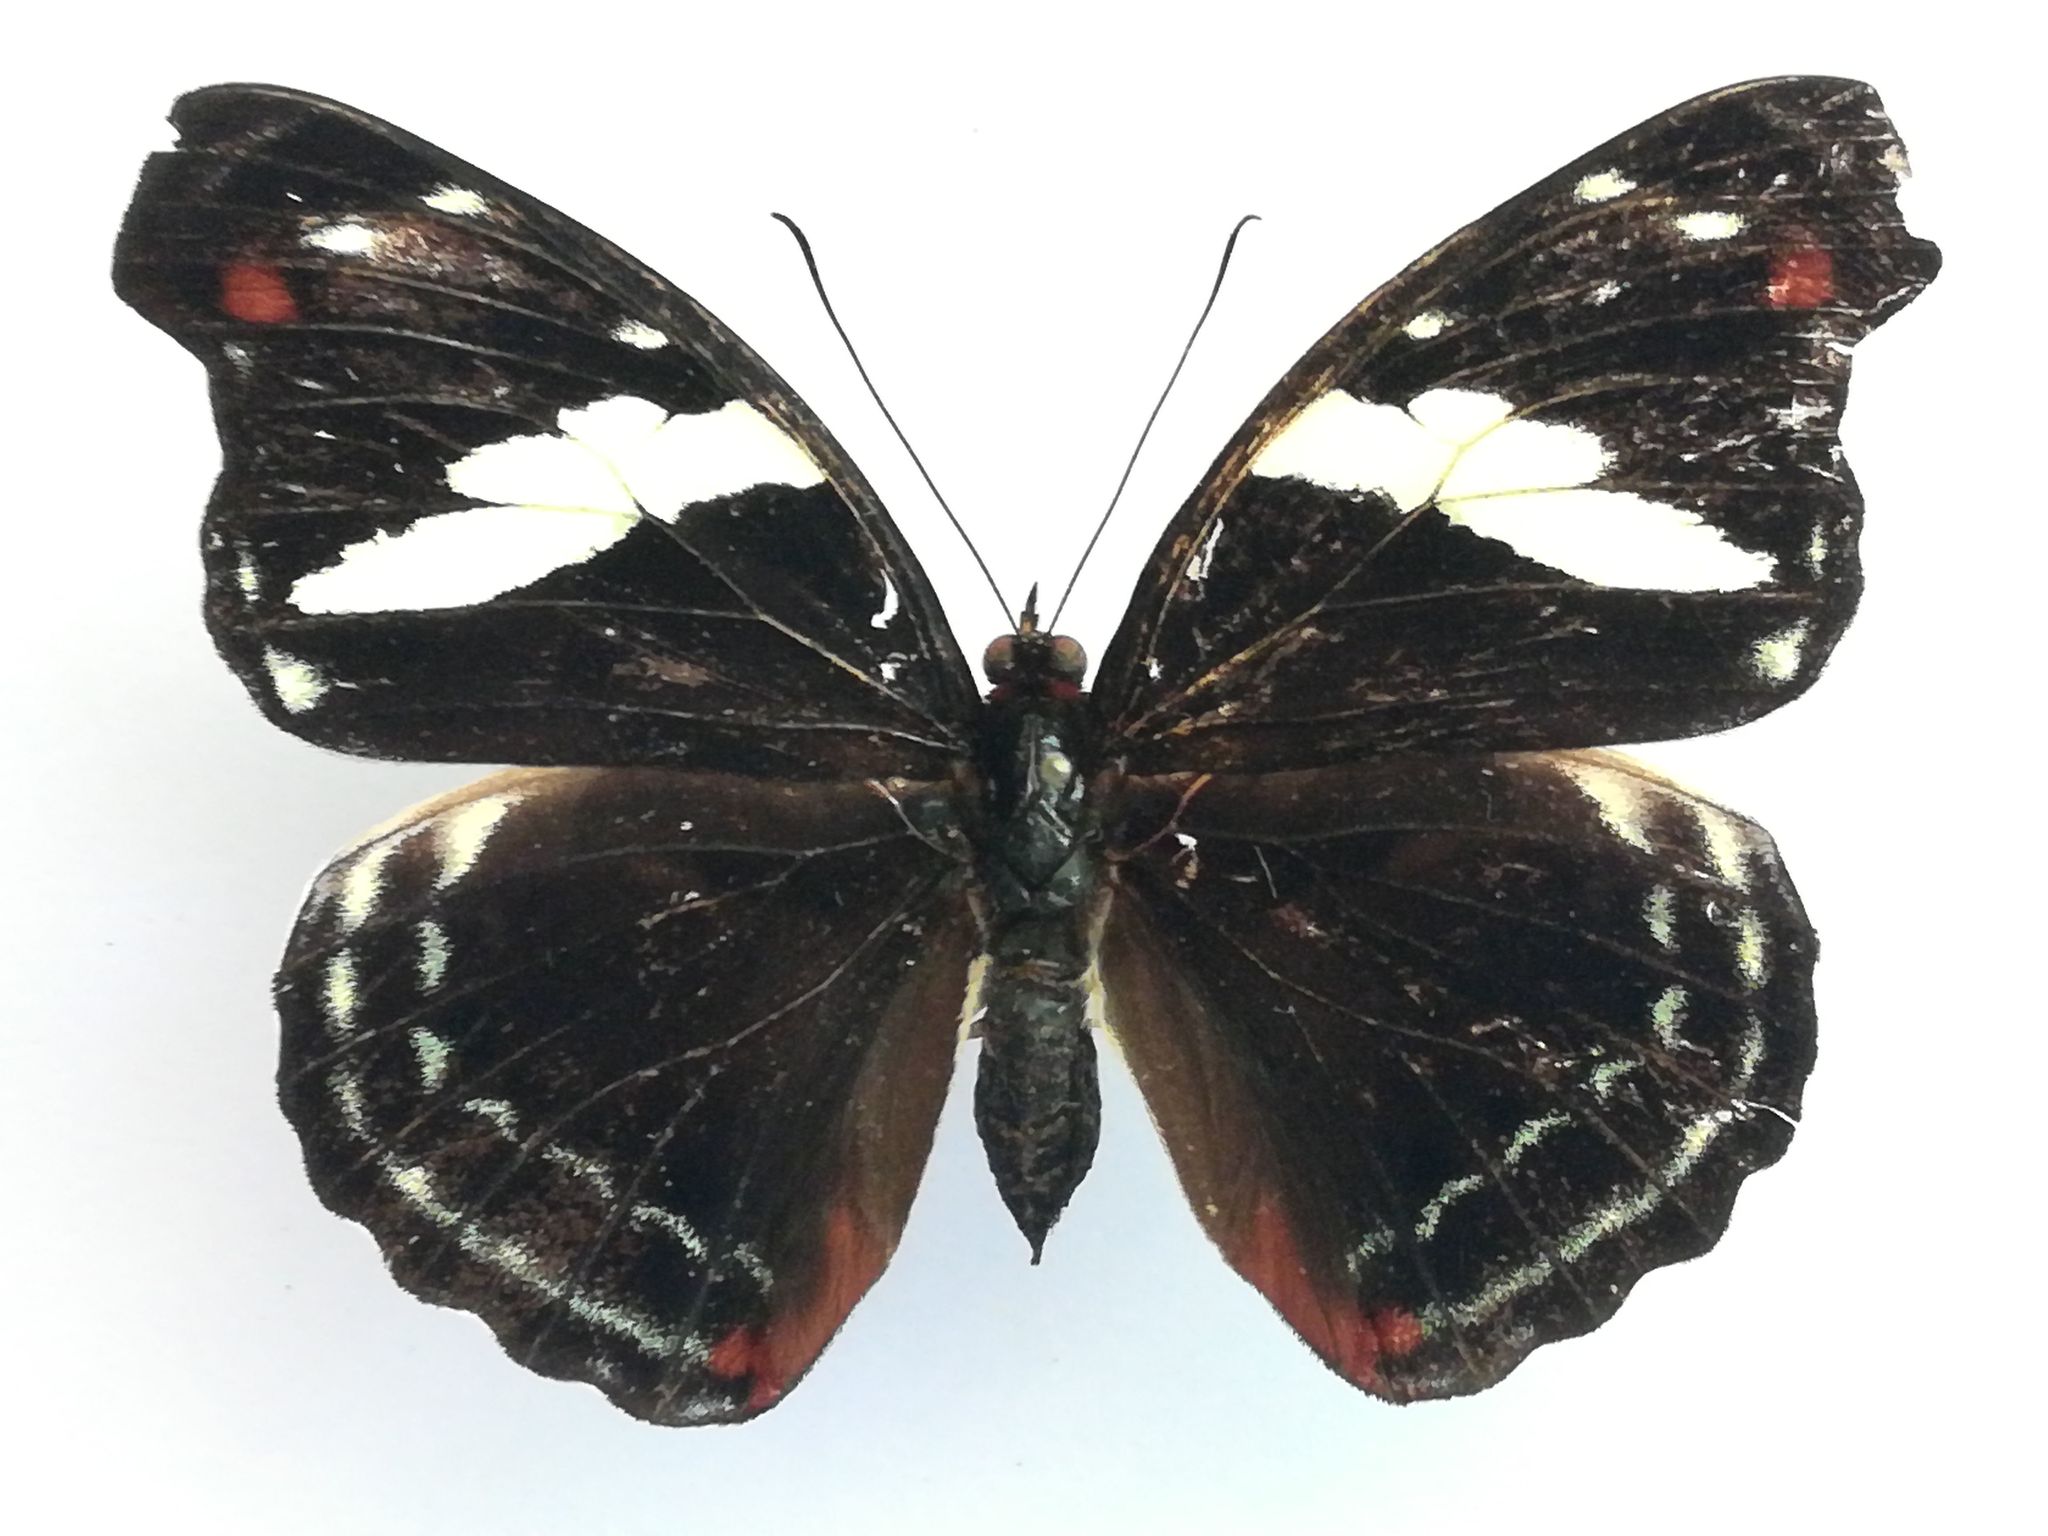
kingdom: Animalia
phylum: Arthropoda
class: Insecta
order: Lepidoptera
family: Nymphalidae
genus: Catonephele
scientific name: Catonephele numilia
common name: Blue-frosted banner
